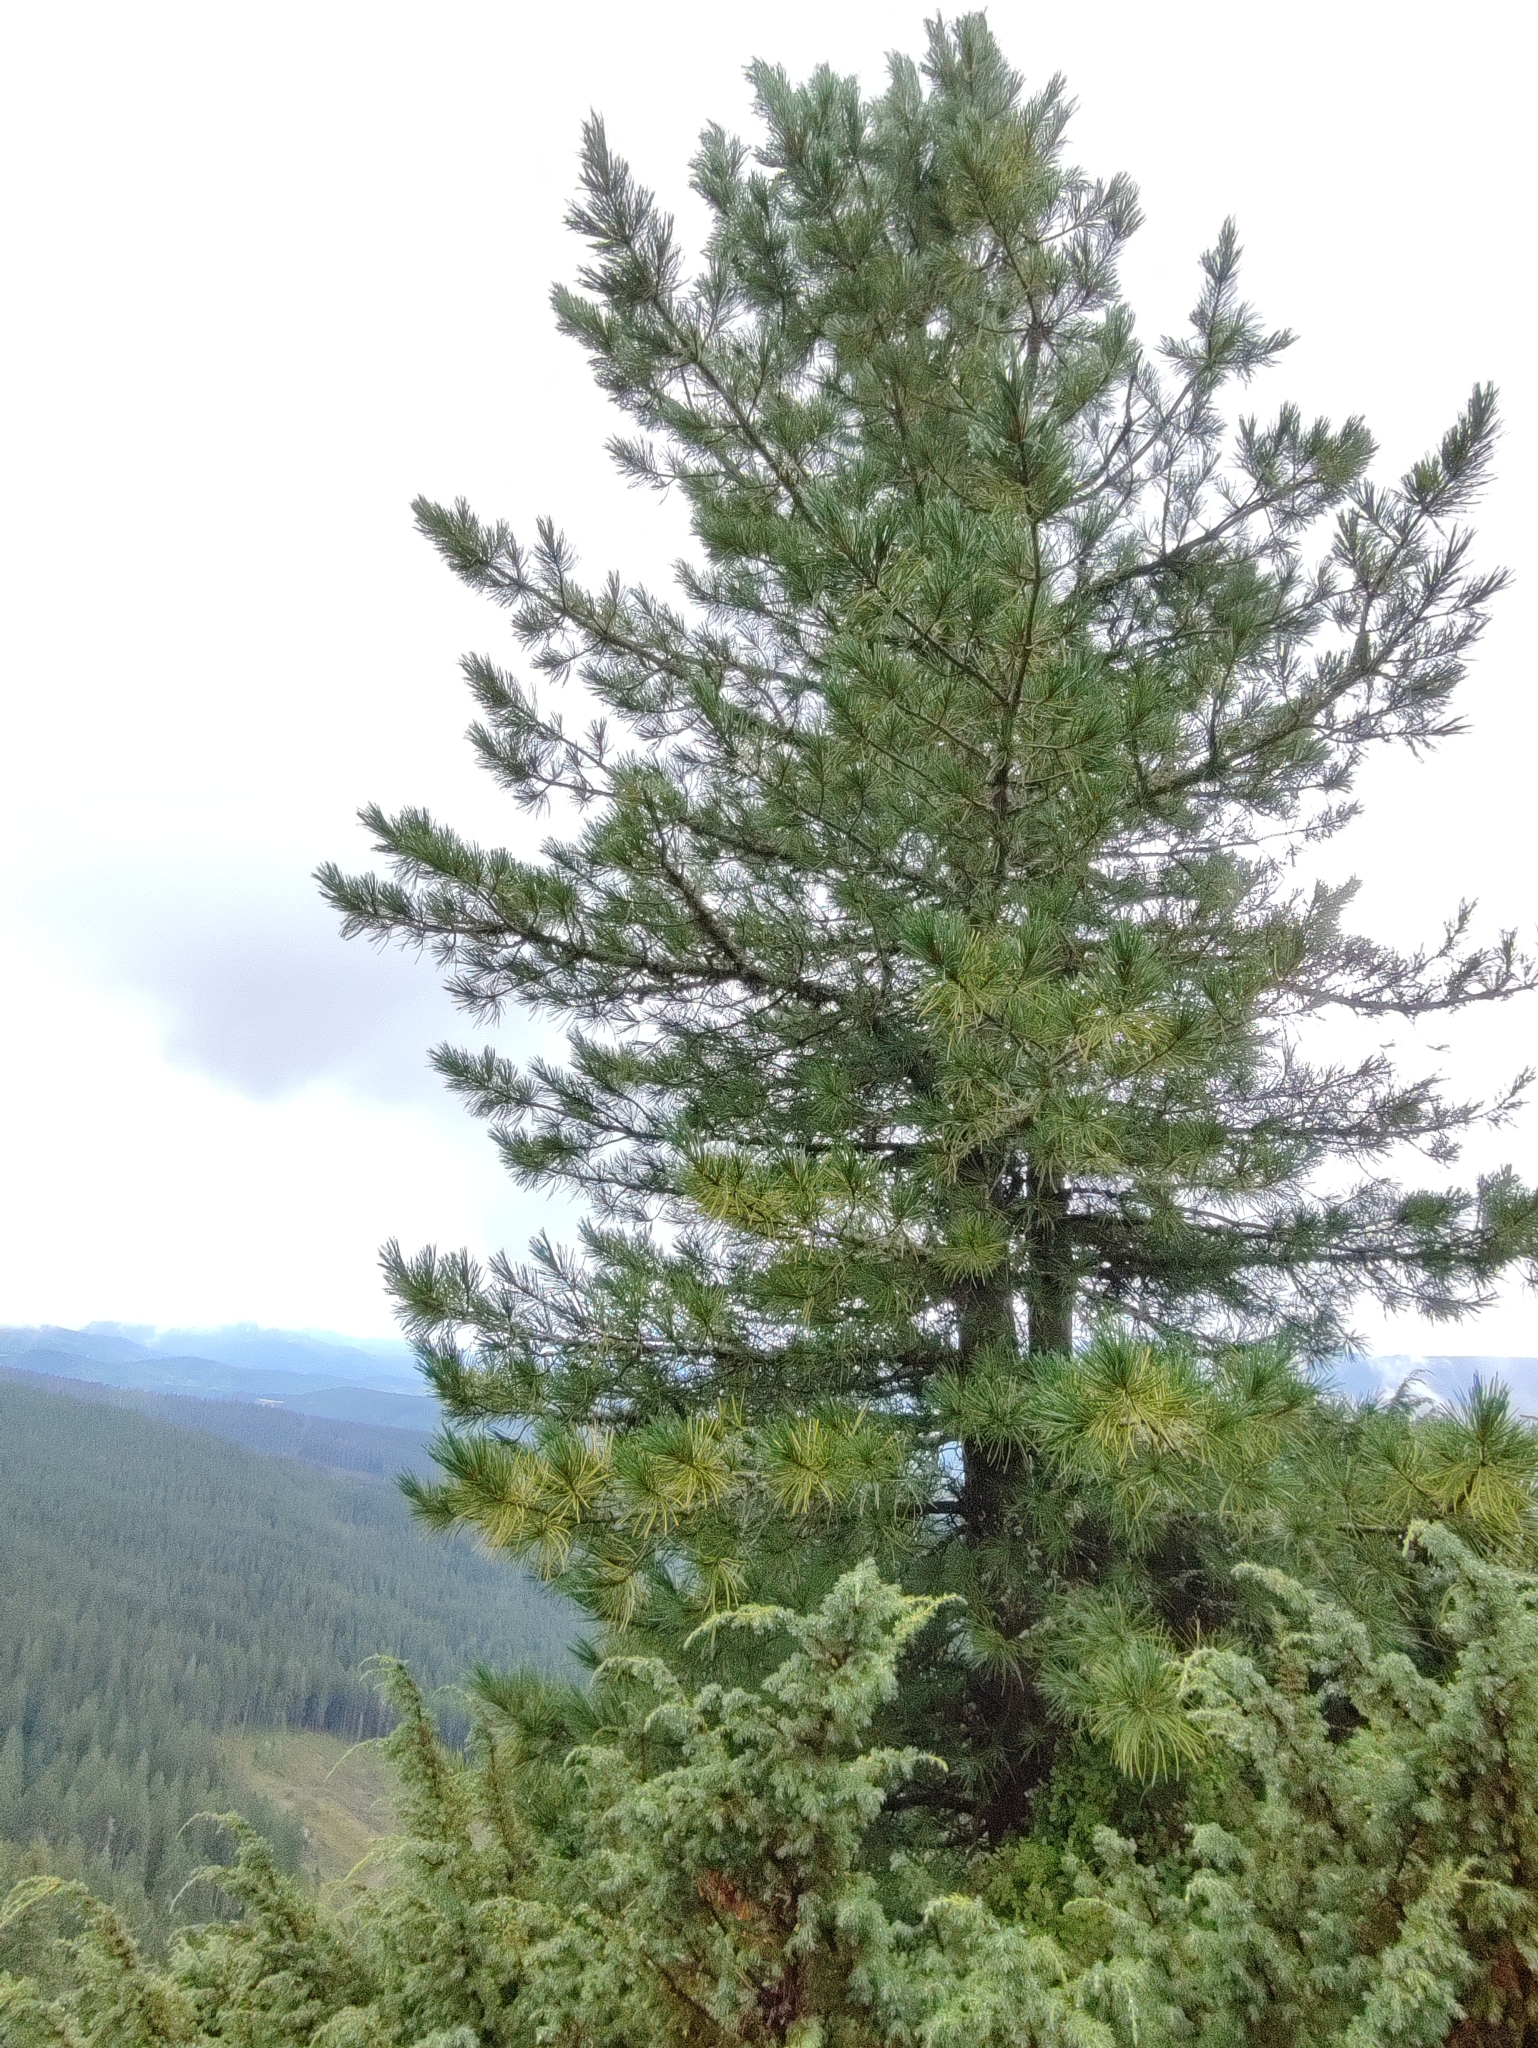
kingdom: Plantae
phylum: Tracheophyta
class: Pinopsida
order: Pinales
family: Pinaceae
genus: Pinus
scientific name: Pinus cembra
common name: Arolla pine
